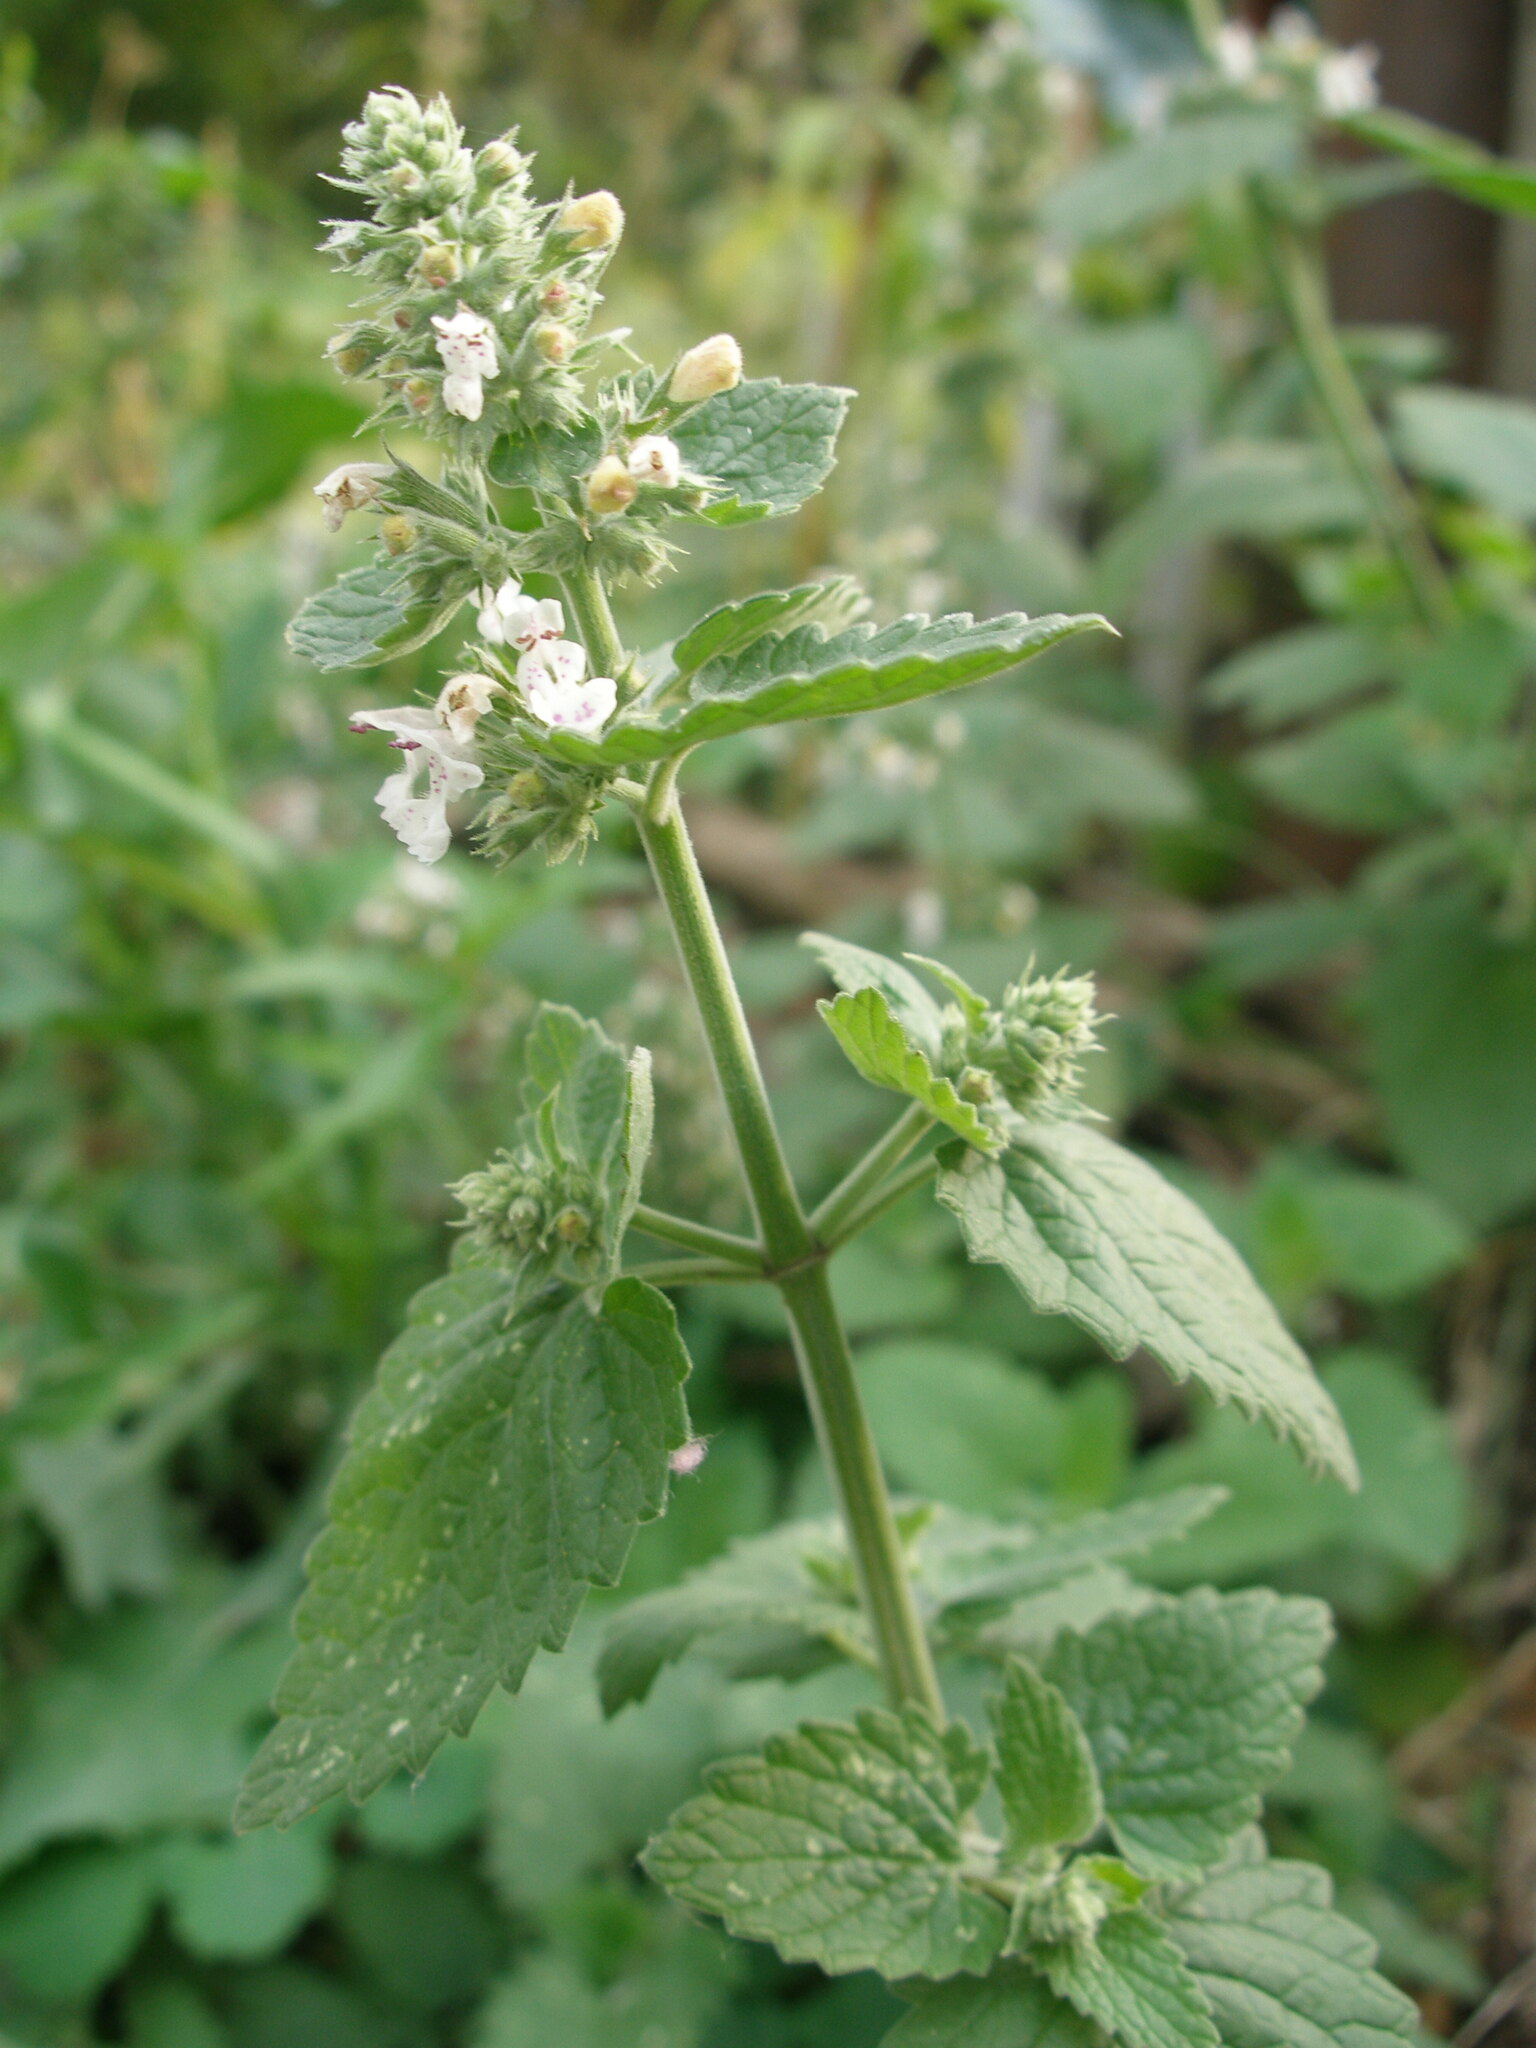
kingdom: Plantae
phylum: Tracheophyta
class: Magnoliopsida
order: Lamiales
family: Lamiaceae
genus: Nepeta
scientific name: Nepeta cataria
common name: Catnip
